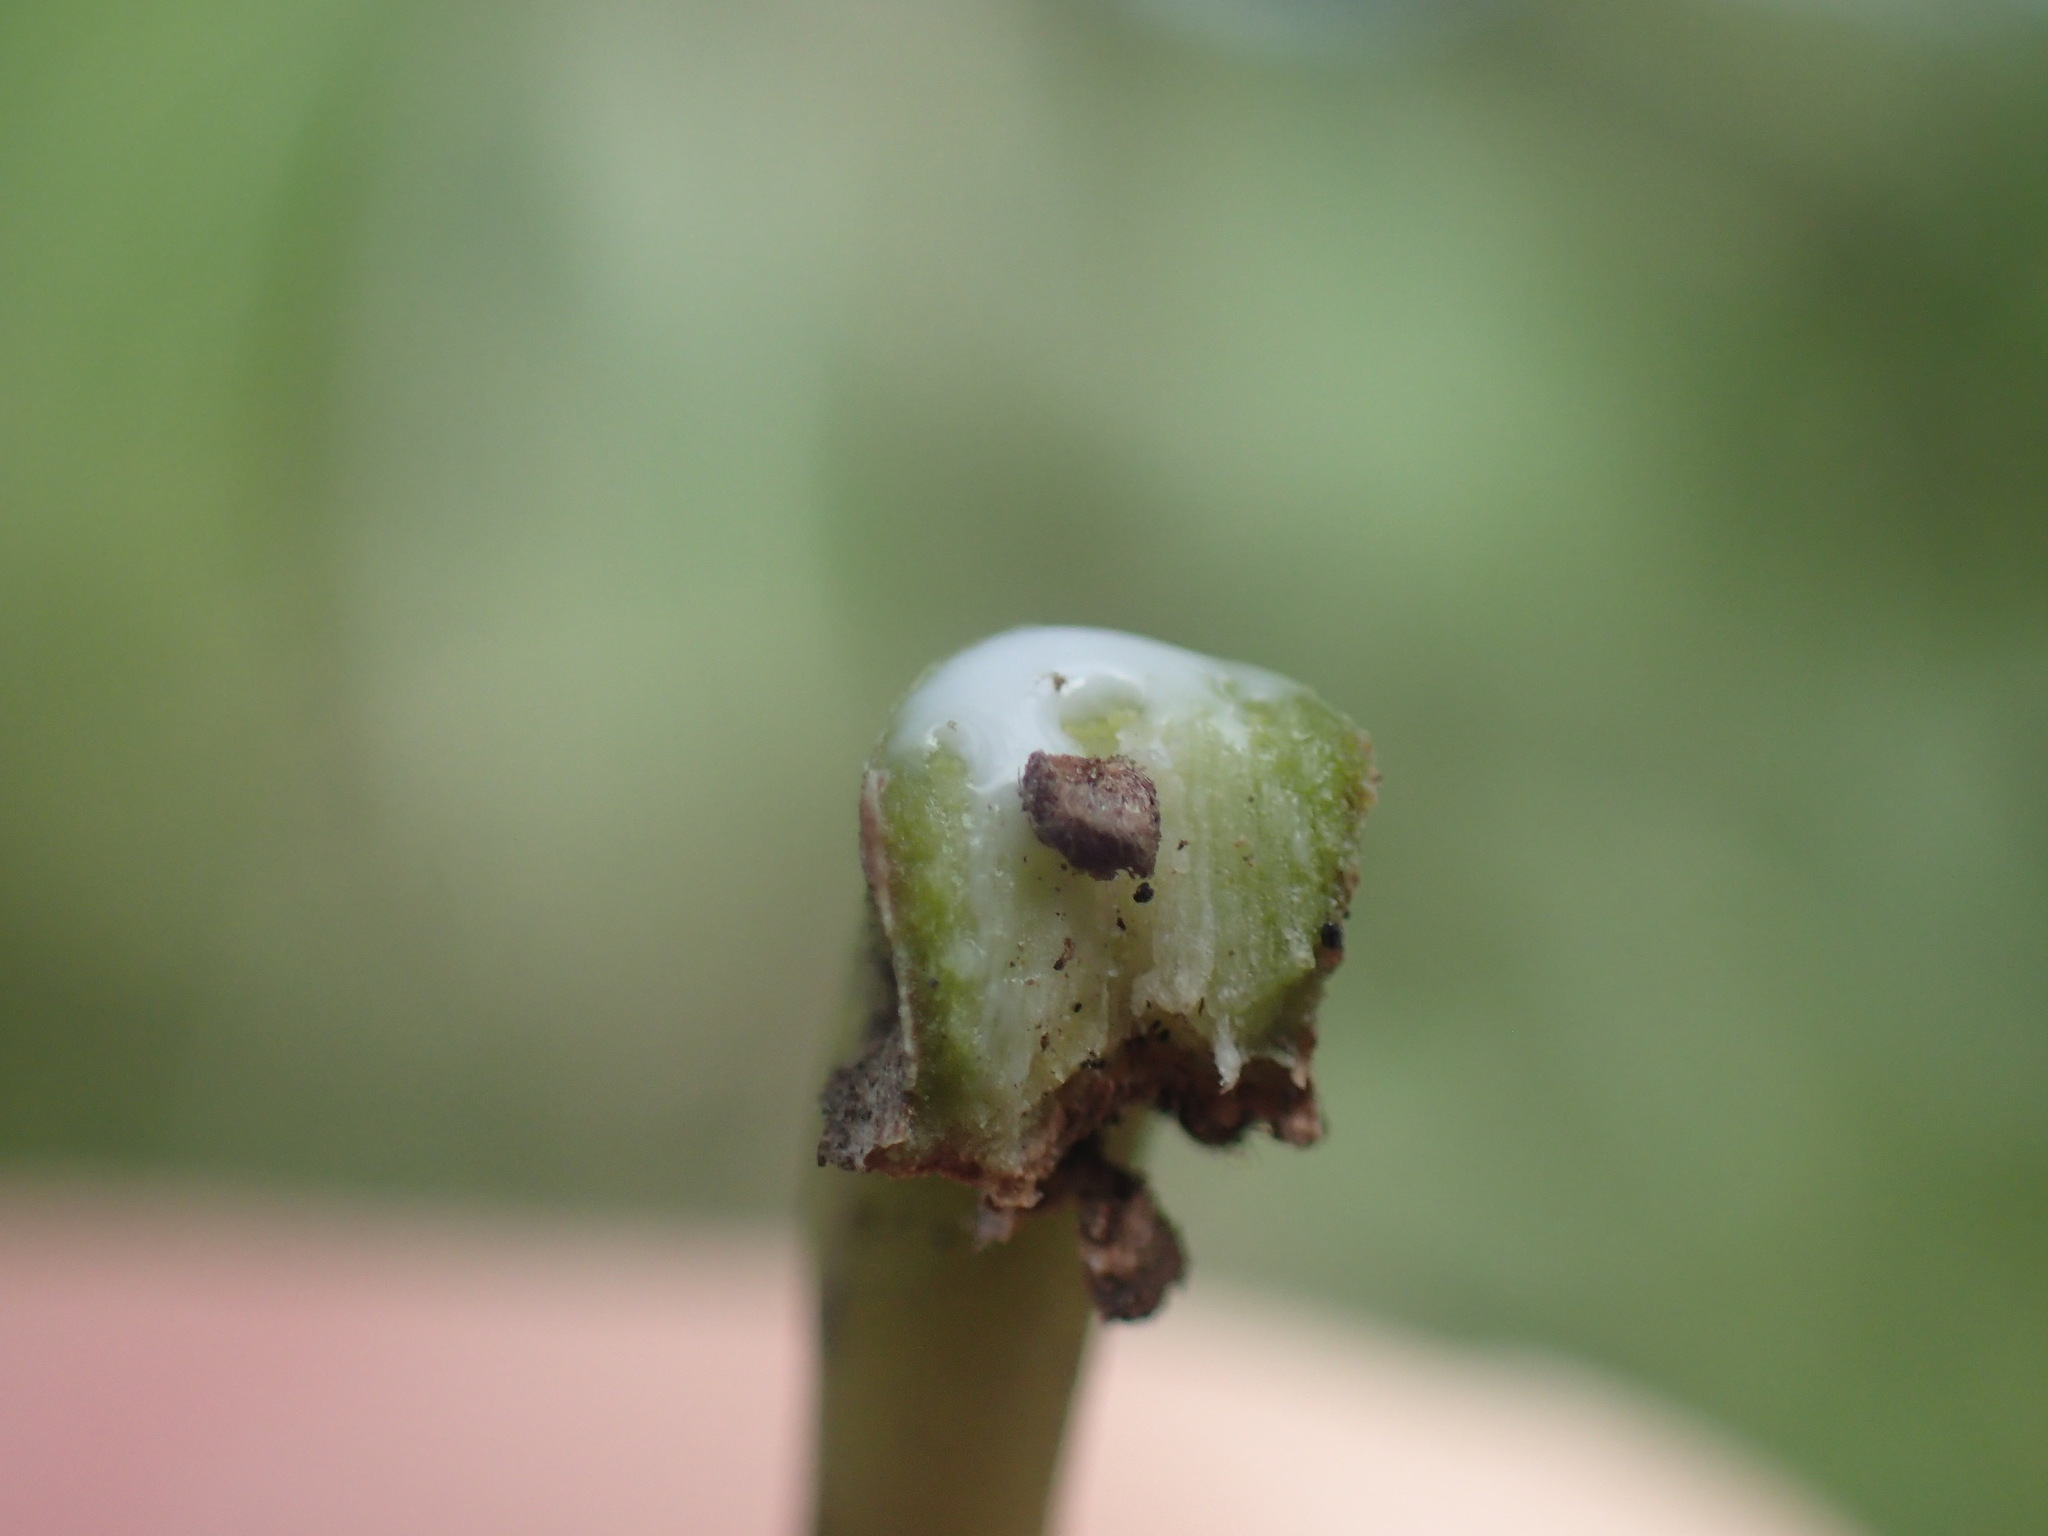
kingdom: Plantae
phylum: Tracheophyta
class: Magnoliopsida
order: Ericales
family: Sapotaceae
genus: Sideroxylon
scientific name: Sideroxylon inerme
